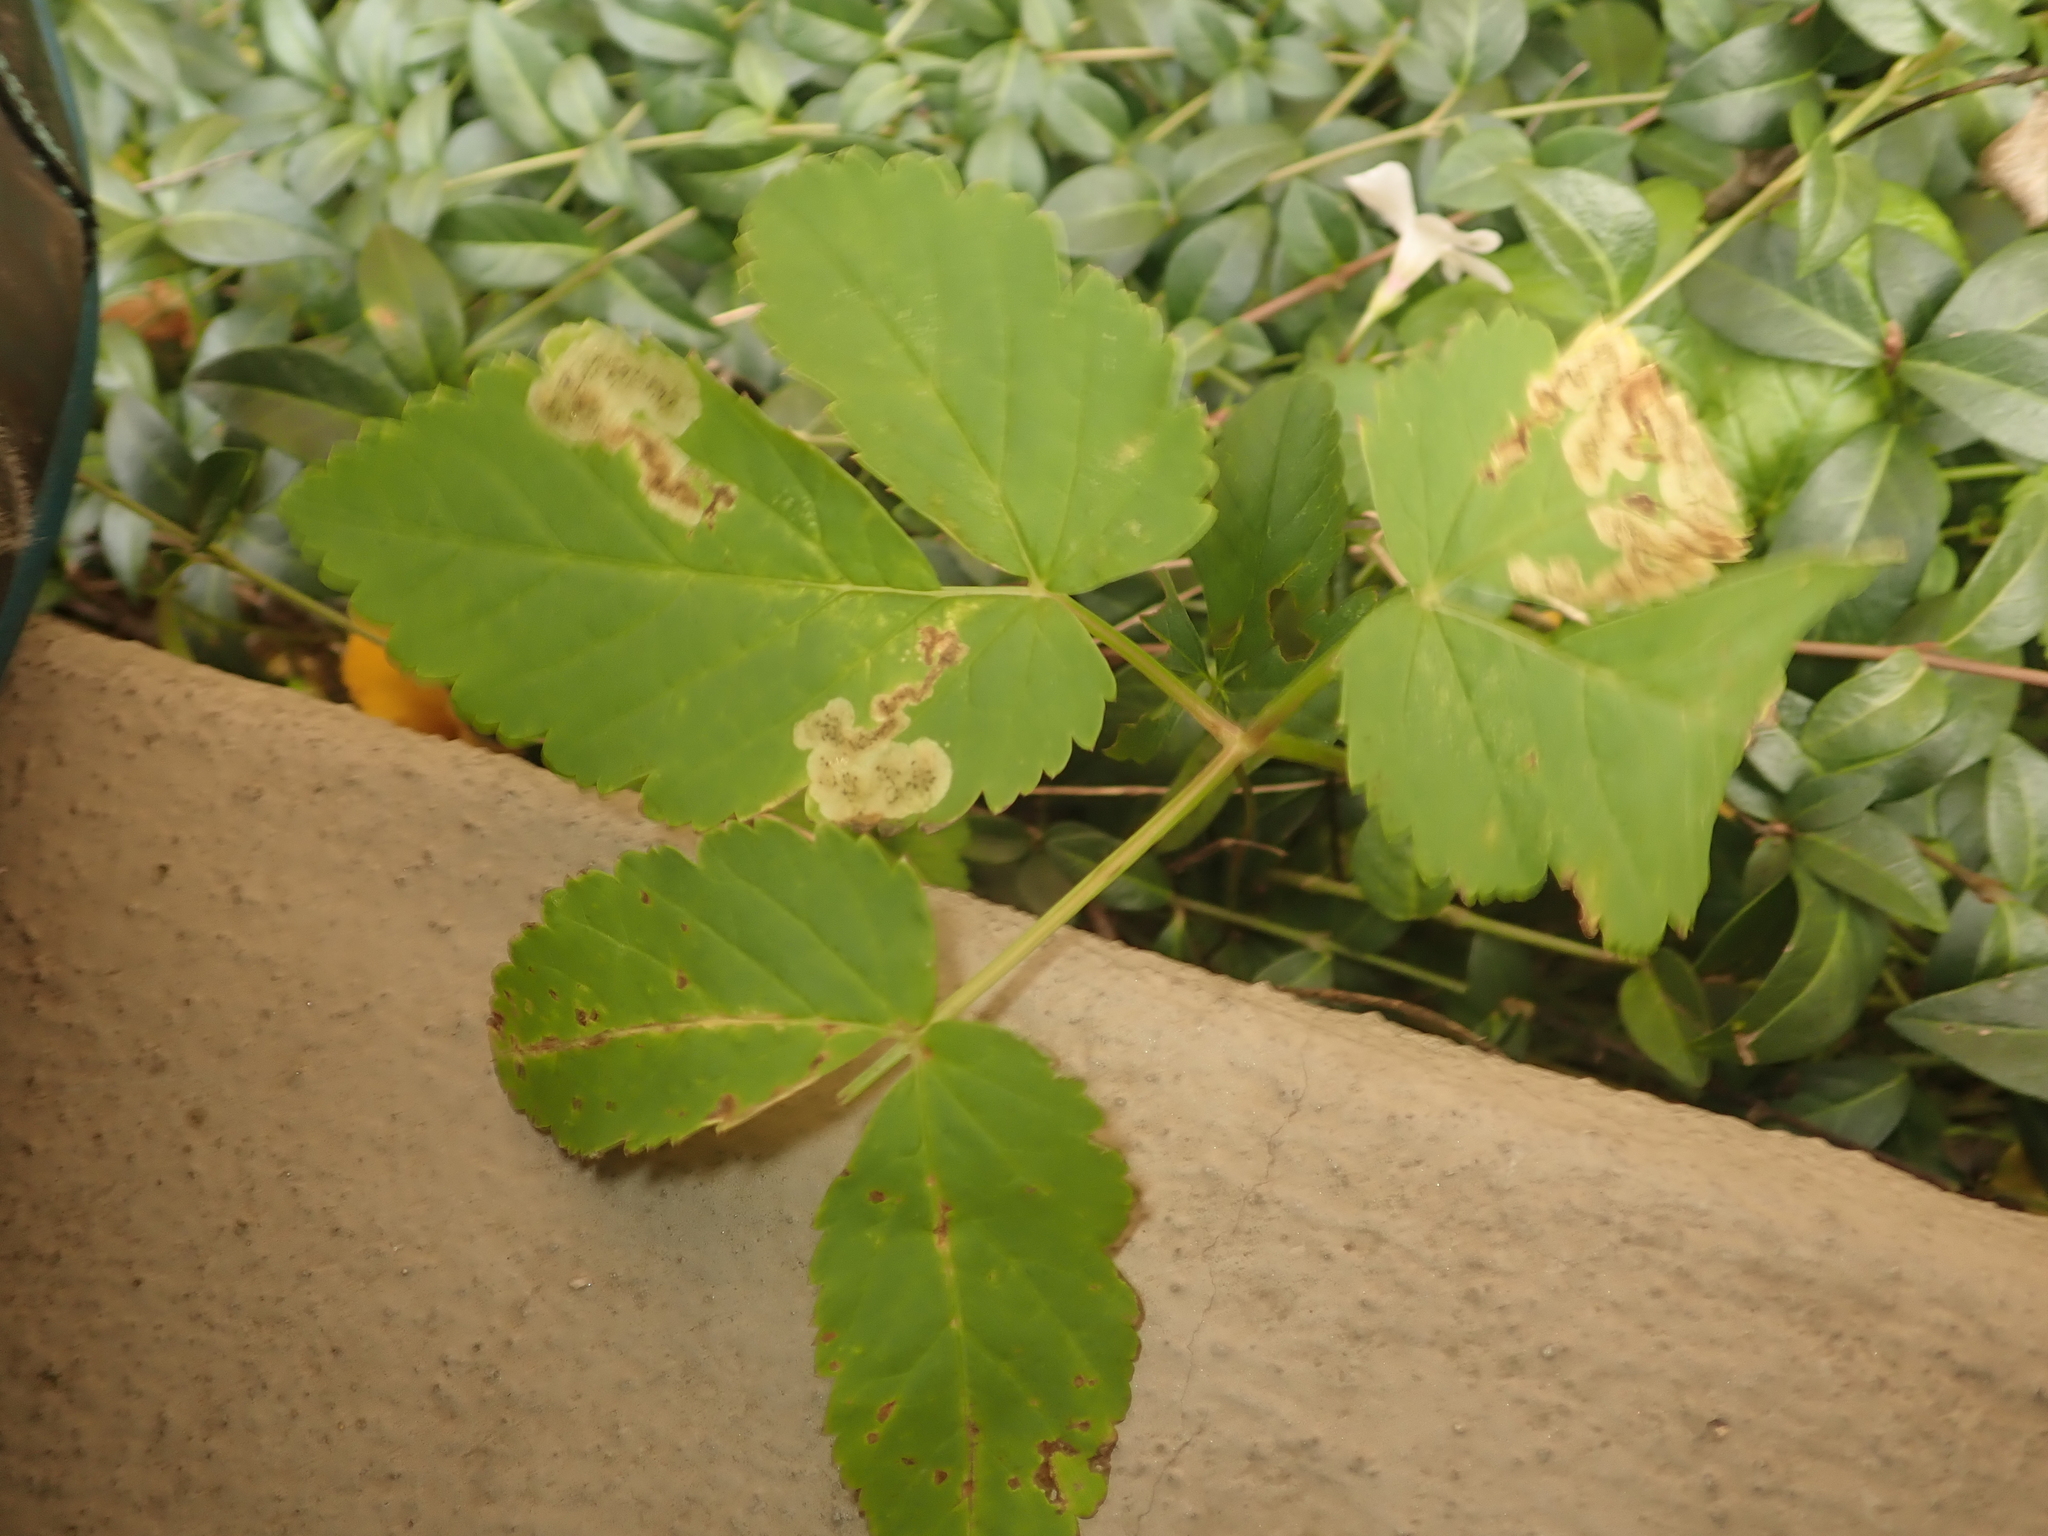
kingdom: Plantae
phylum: Tracheophyta
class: Magnoliopsida
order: Apiales
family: Apiaceae
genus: Aegopodium
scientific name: Aegopodium podagraria
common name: Ground-elder
